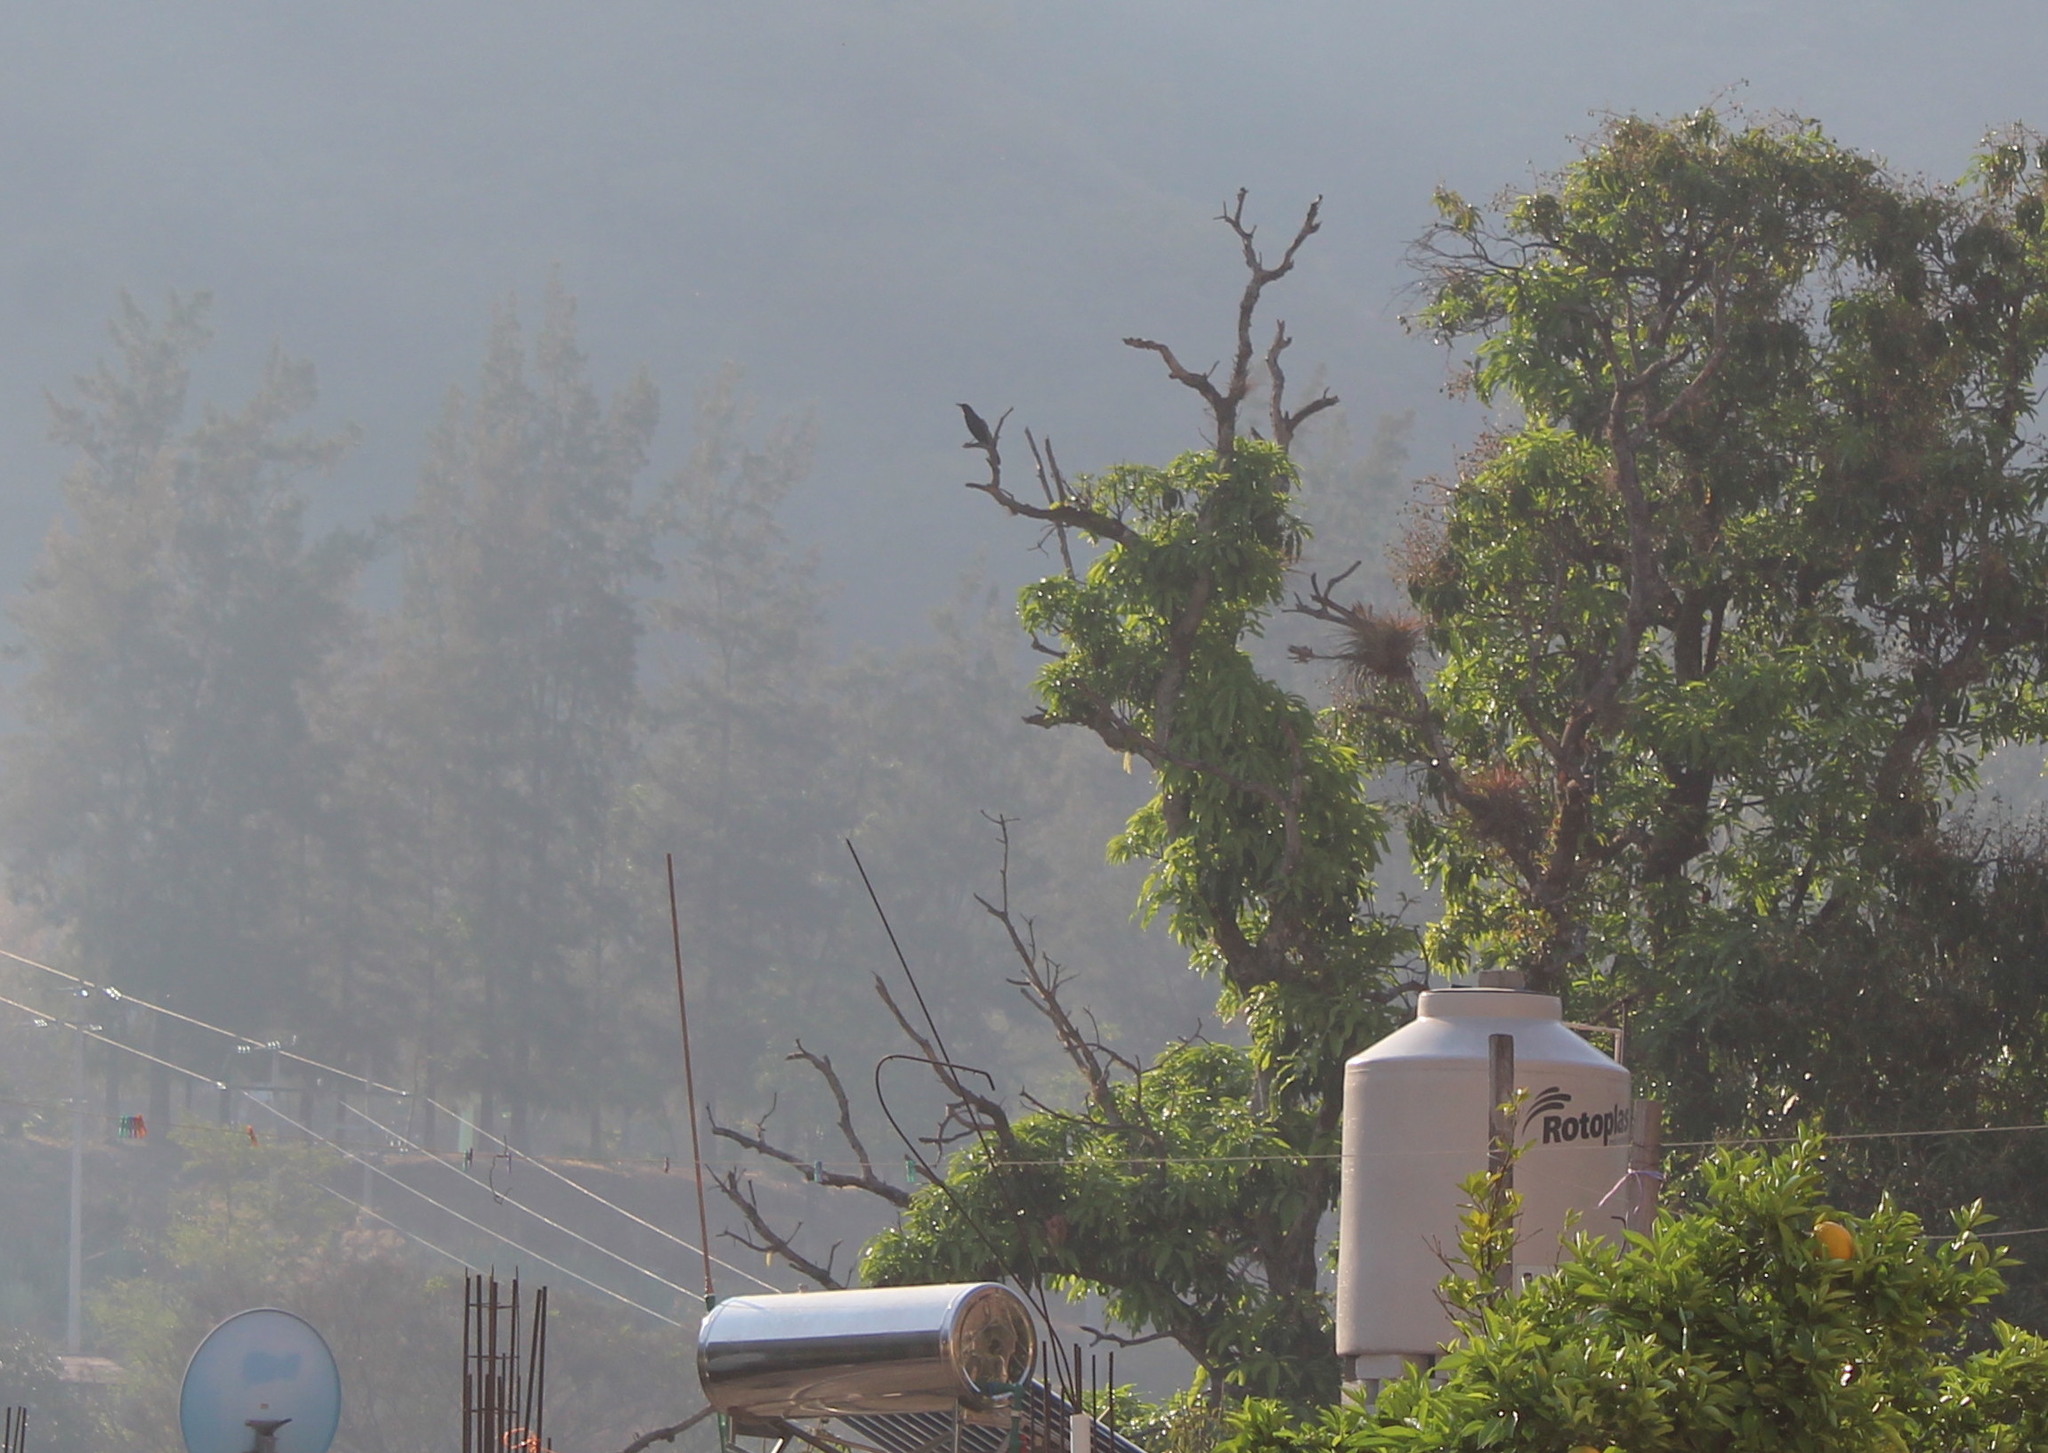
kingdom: Animalia
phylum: Chordata
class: Aves
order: Passeriformes
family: Icteridae
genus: Quiscalus
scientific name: Quiscalus mexicanus
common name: Great-tailed grackle
